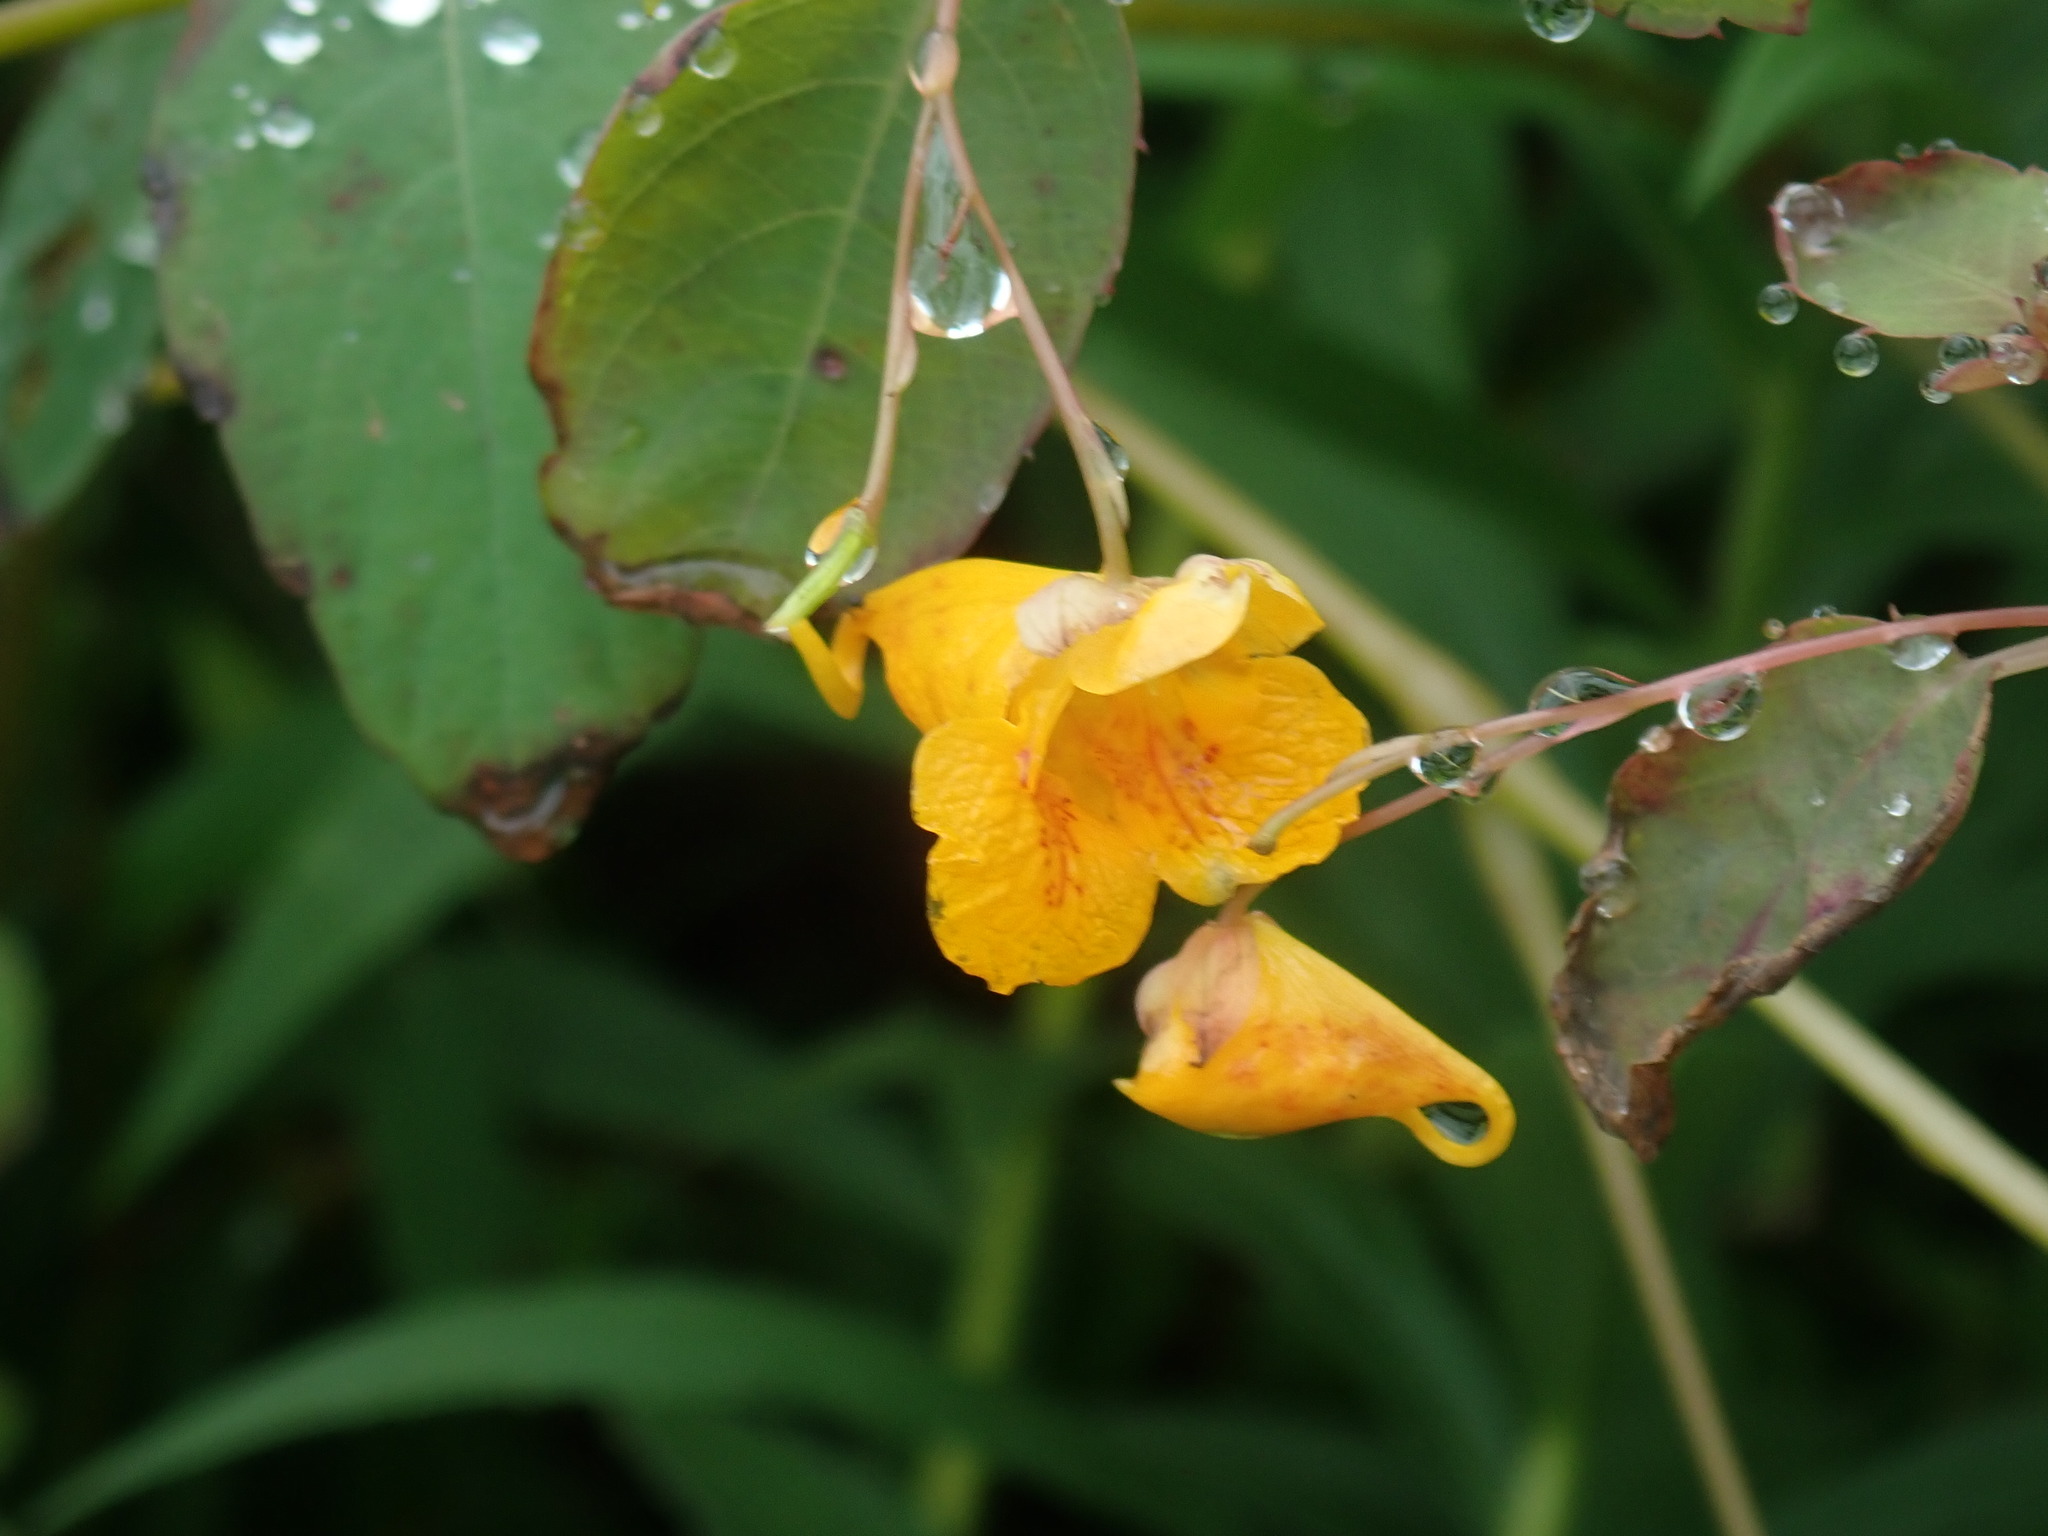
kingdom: Plantae
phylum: Tracheophyta
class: Magnoliopsida
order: Ericales
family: Balsaminaceae
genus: Impatiens
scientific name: Impatiens capensis
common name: Orange balsam
